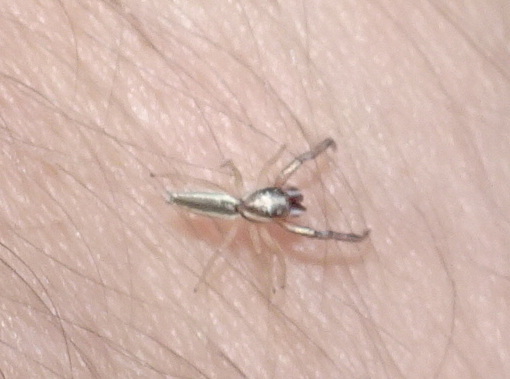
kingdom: Animalia
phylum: Arthropoda
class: Arachnida
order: Araneae
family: Salticidae
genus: Hentzia
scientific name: Hentzia grenada
